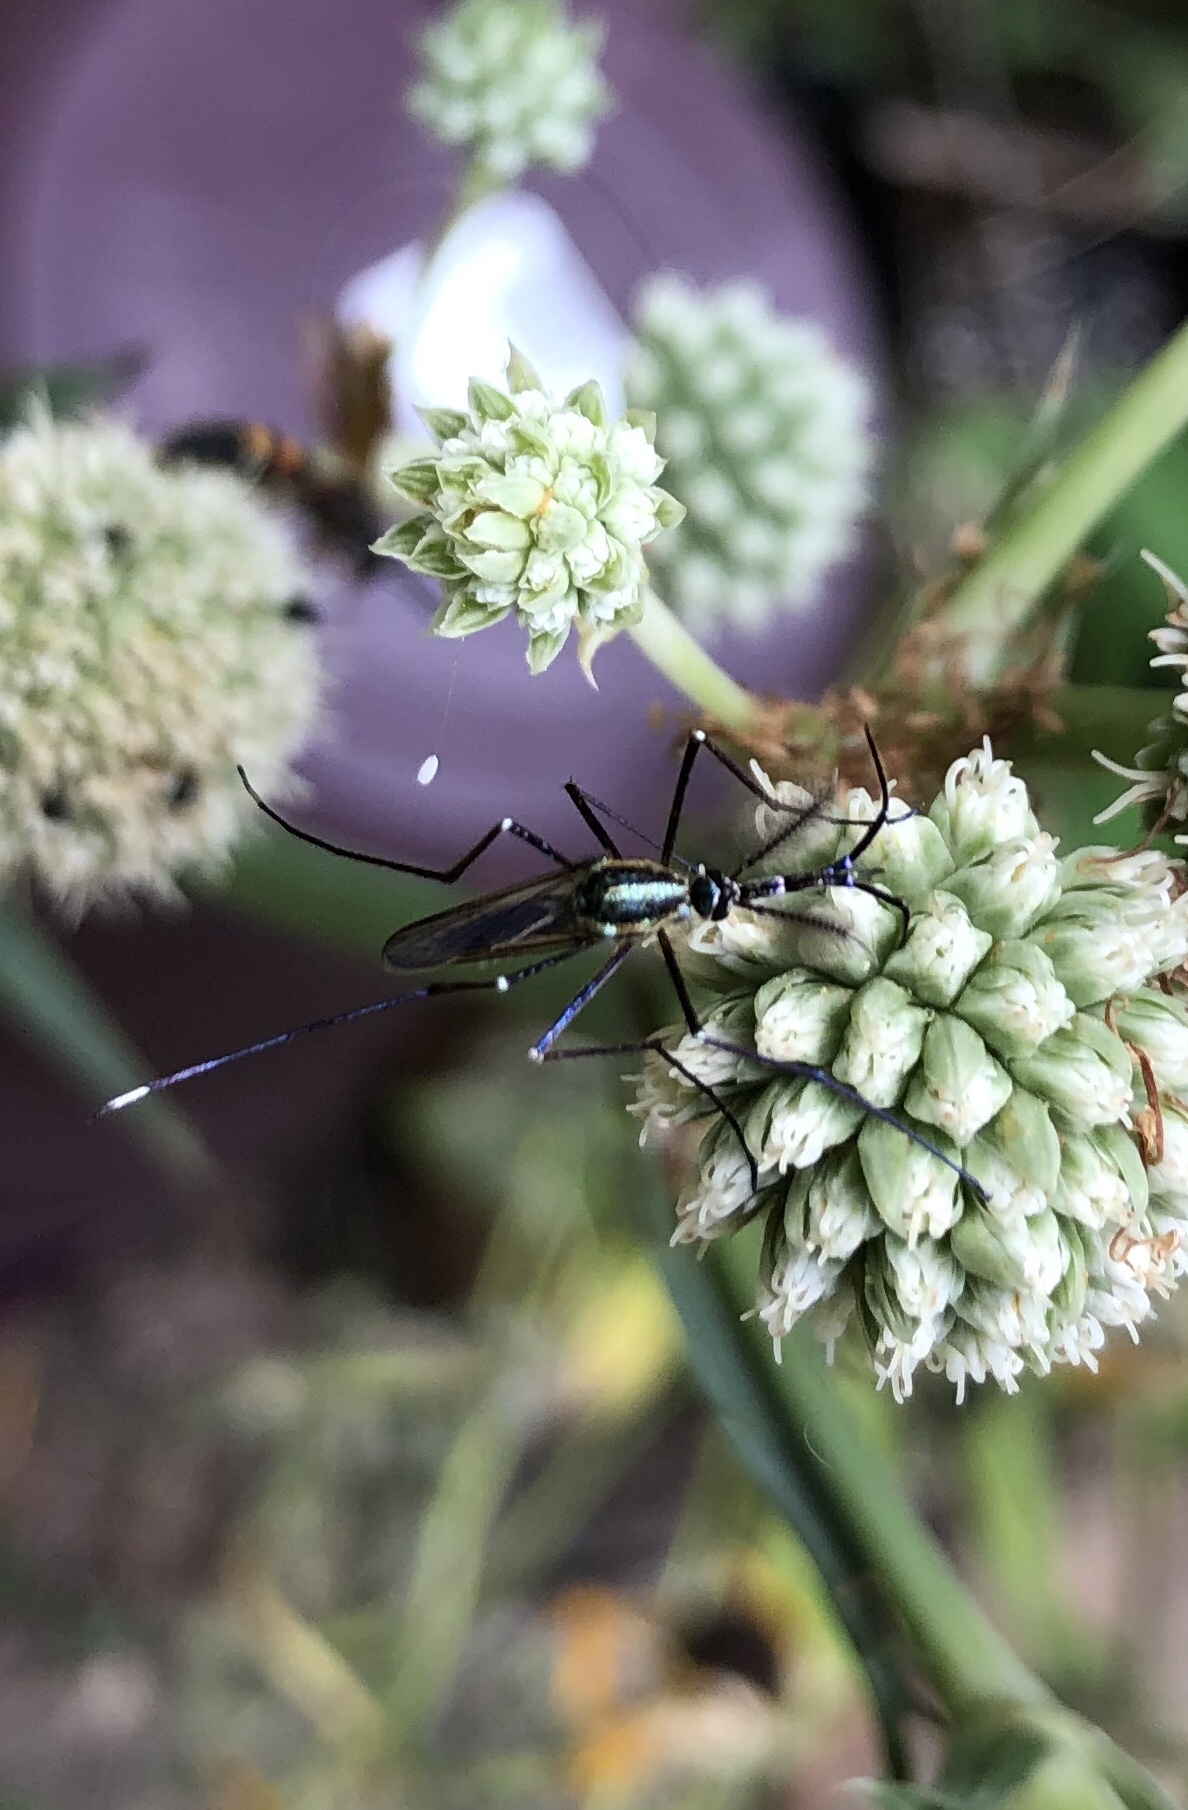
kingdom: Animalia
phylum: Arthropoda
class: Insecta
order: Diptera
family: Culicidae
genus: Toxorhynchites
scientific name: Toxorhynchites rutilus
